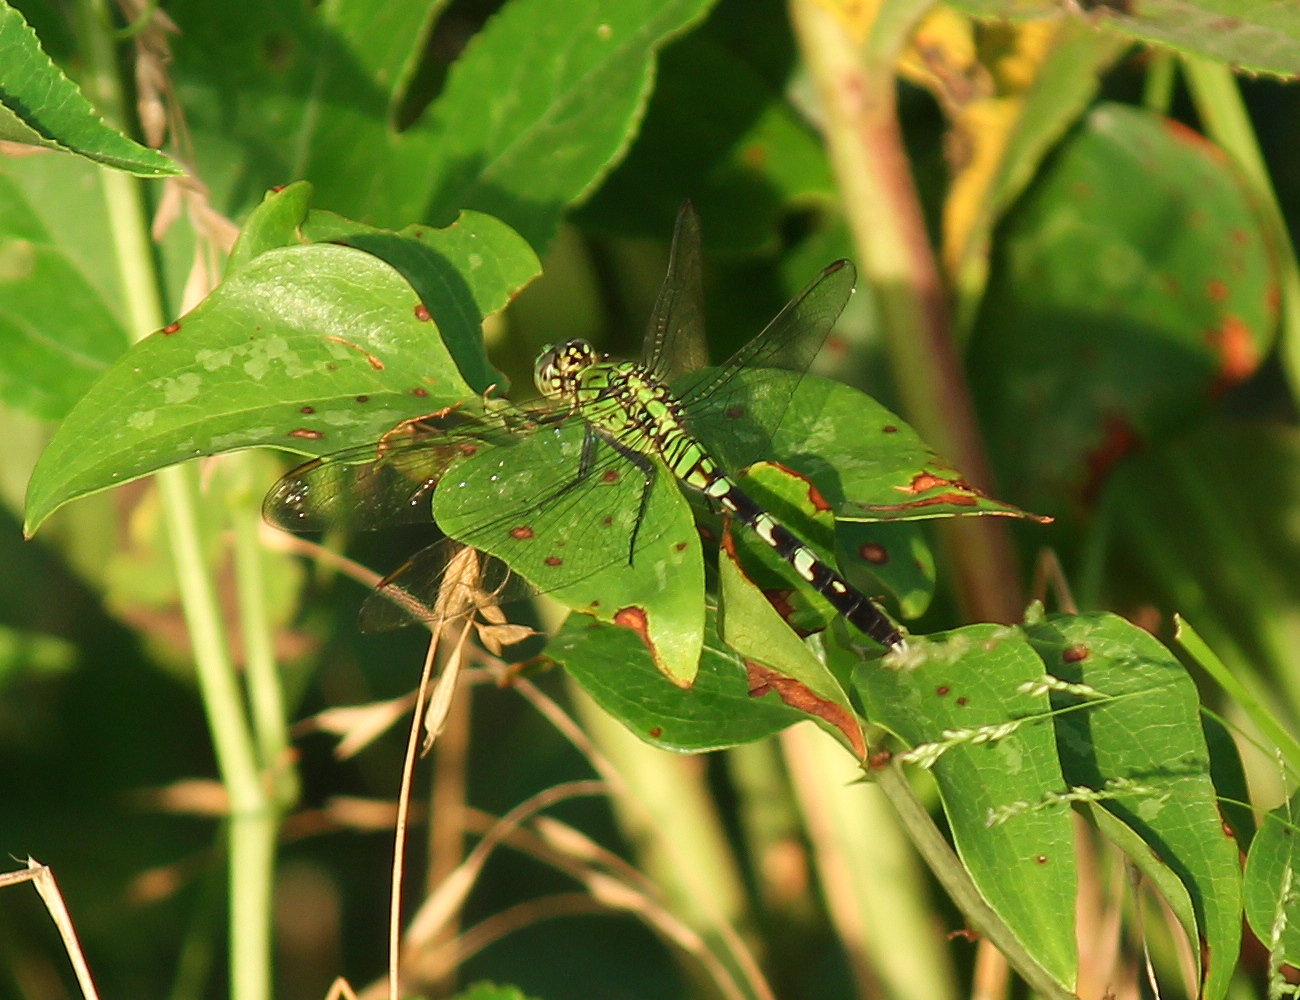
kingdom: Animalia
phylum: Arthropoda
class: Insecta
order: Odonata
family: Libellulidae
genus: Erythemis
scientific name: Erythemis simplicicollis
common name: Eastern pondhawk
